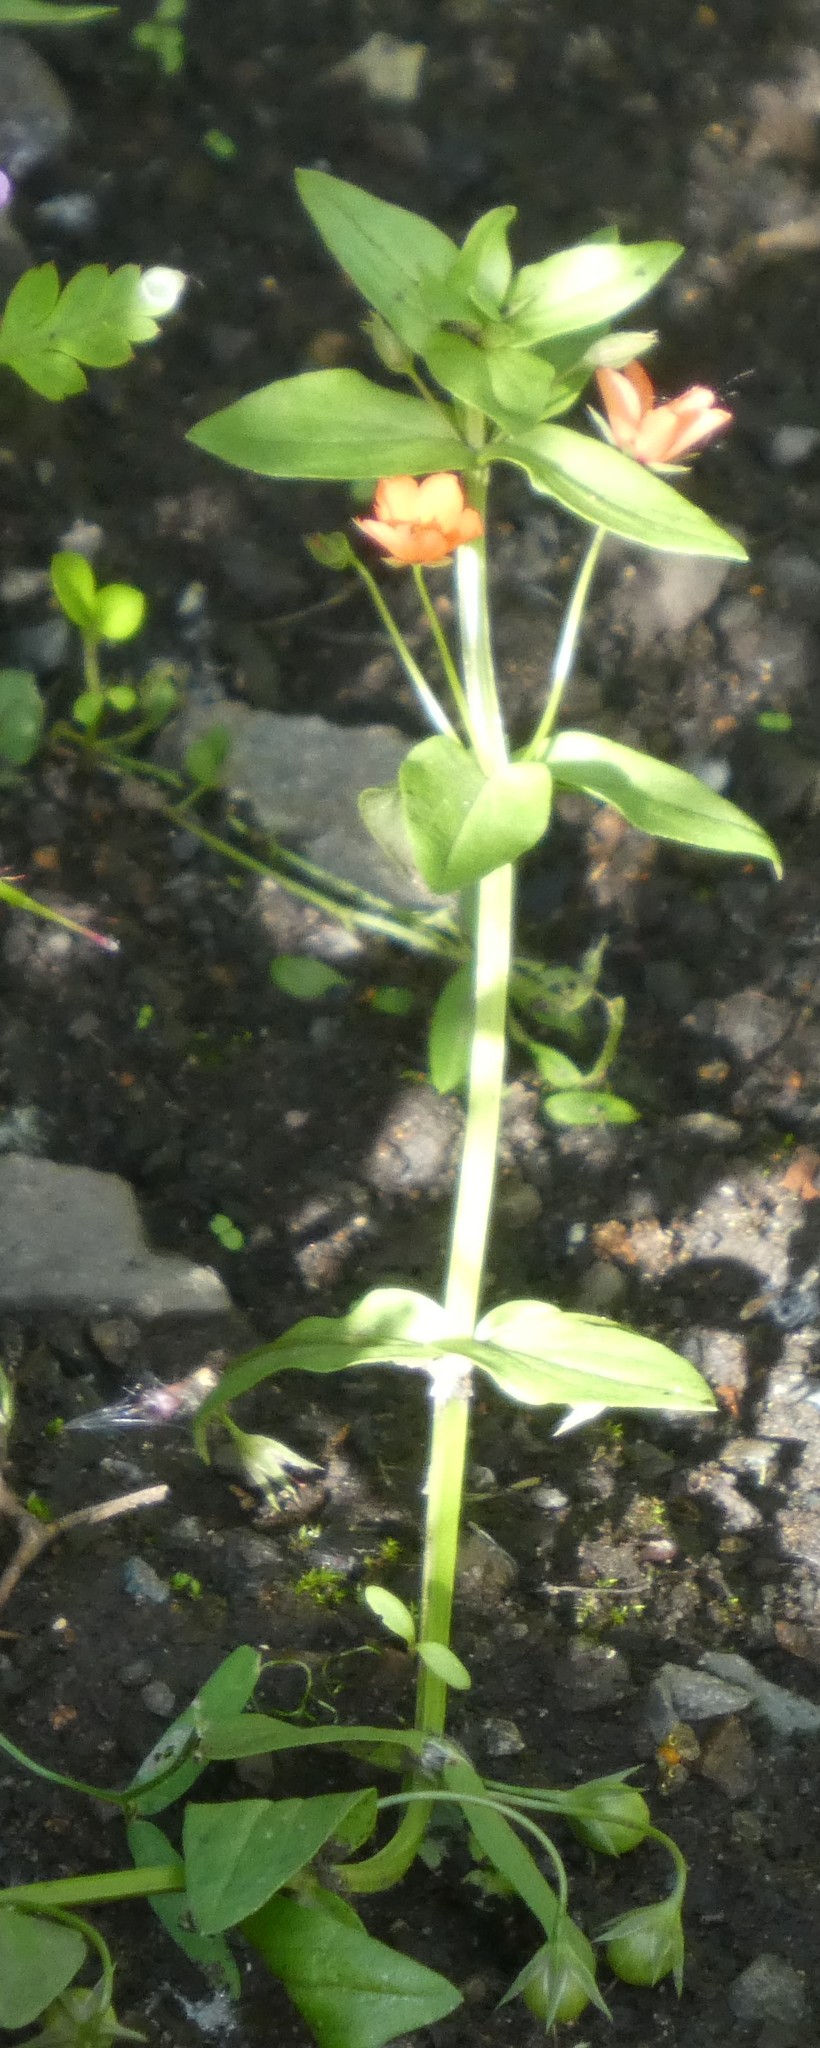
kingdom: Plantae
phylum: Tracheophyta
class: Magnoliopsida
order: Ericales
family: Primulaceae
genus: Lysimachia
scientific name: Lysimachia arvensis
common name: Scarlet pimpernel
